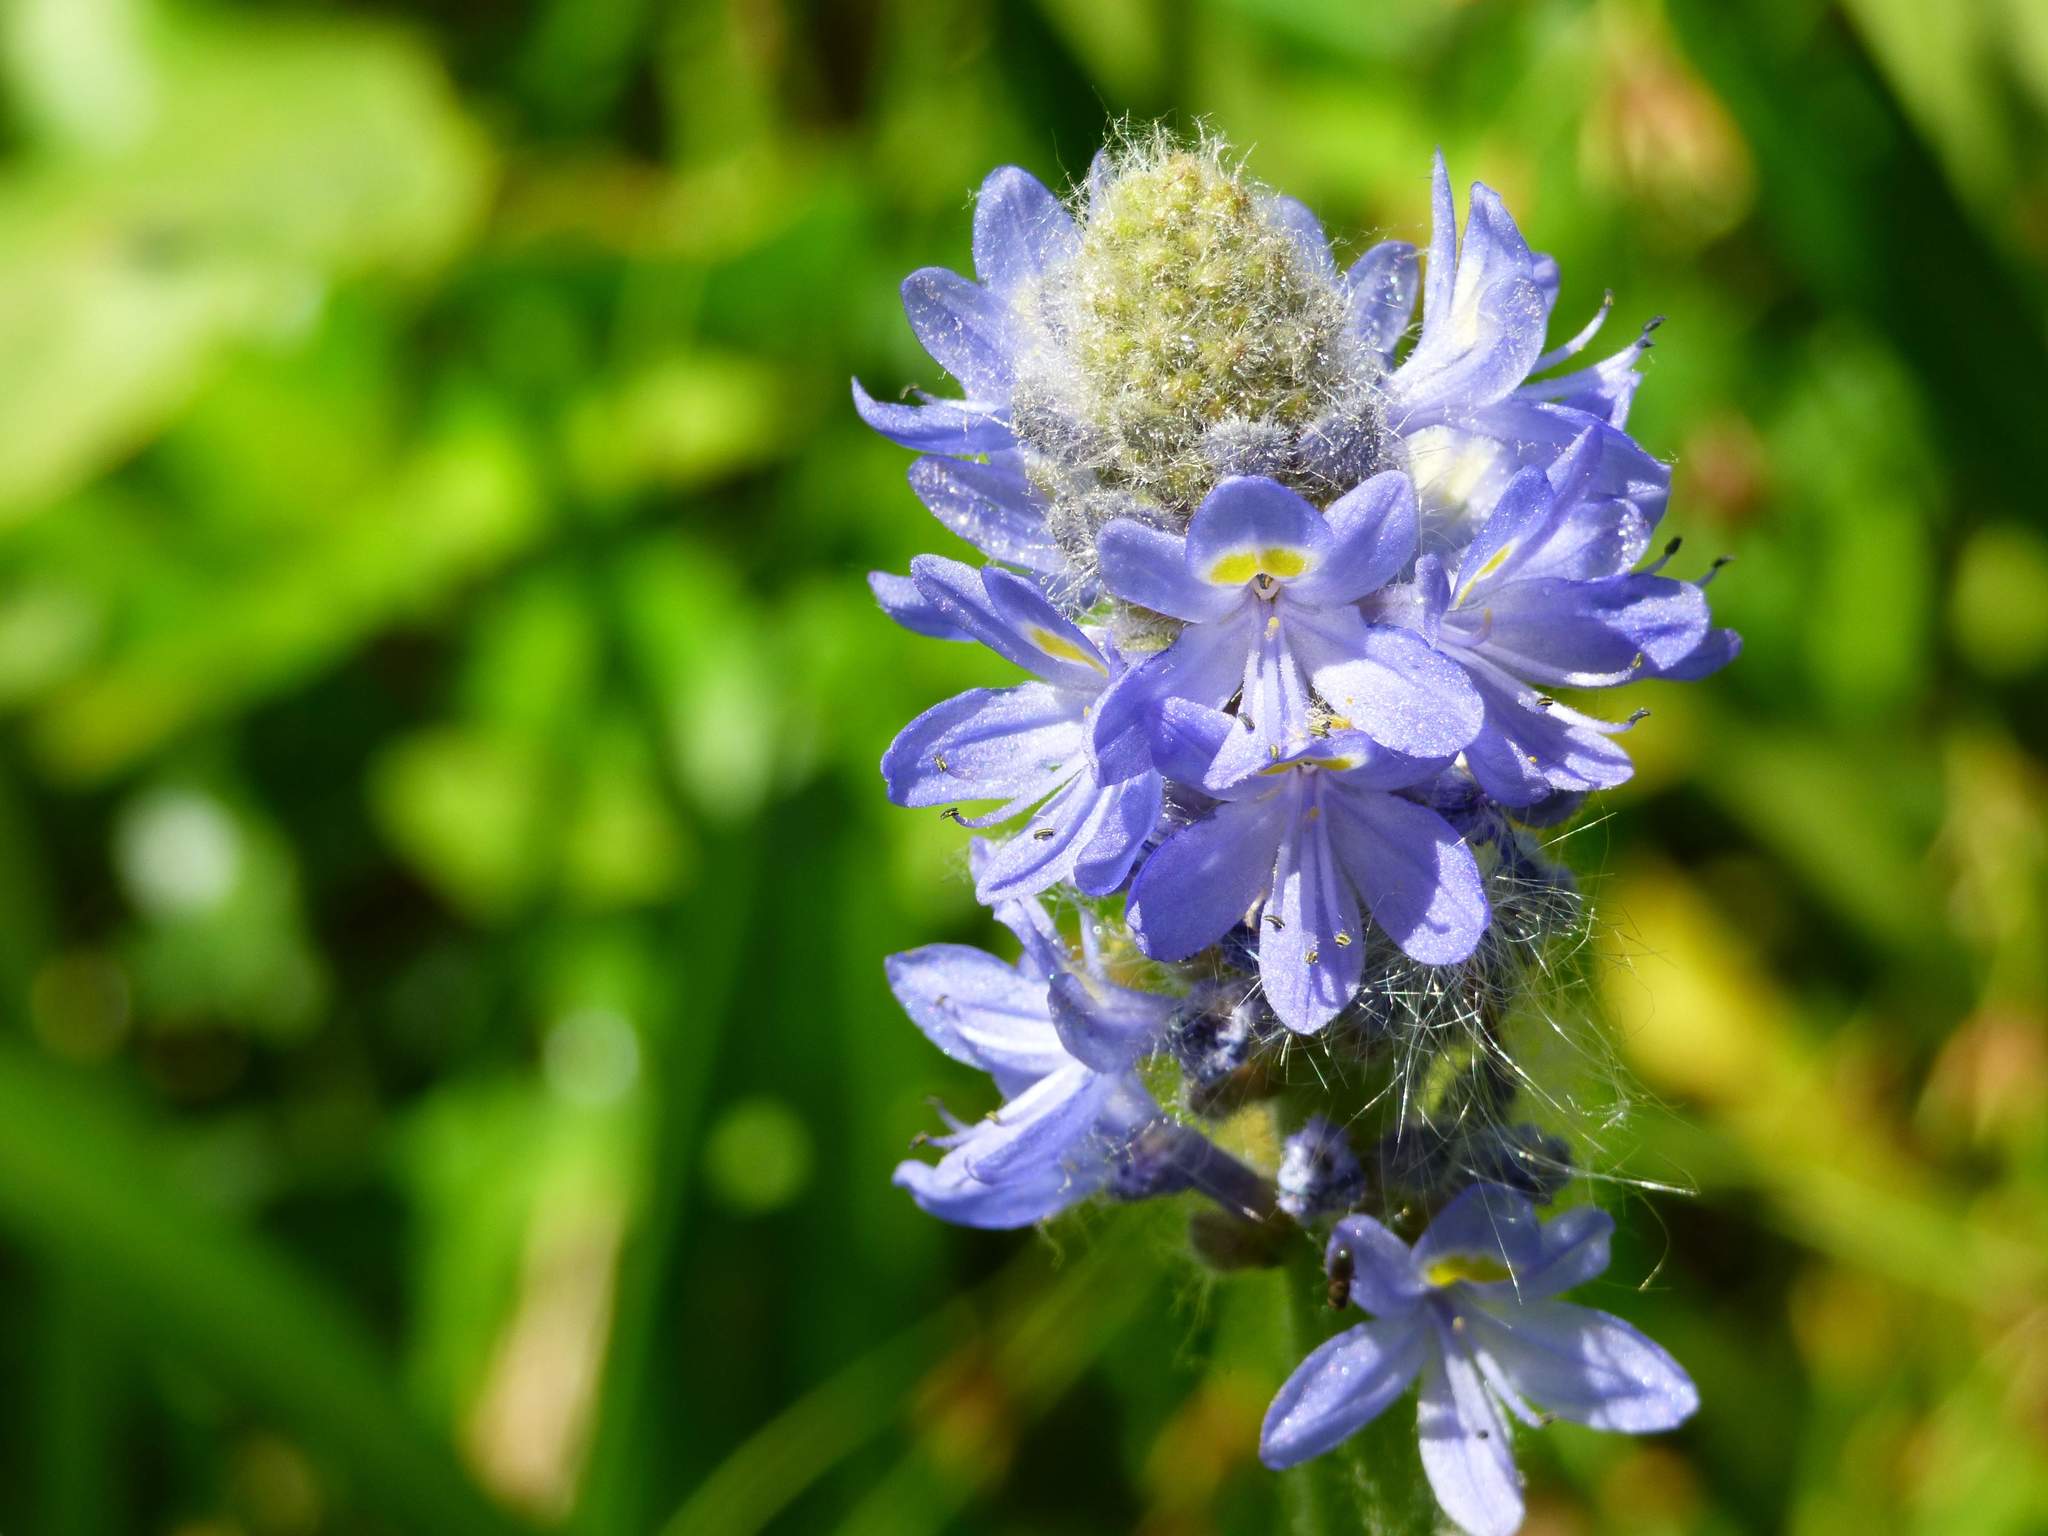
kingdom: Plantae
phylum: Tracheophyta
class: Liliopsida
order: Commelinales
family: Pontederiaceae
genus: Pontederia
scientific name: Pontederia cordata
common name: Pickerelweed
